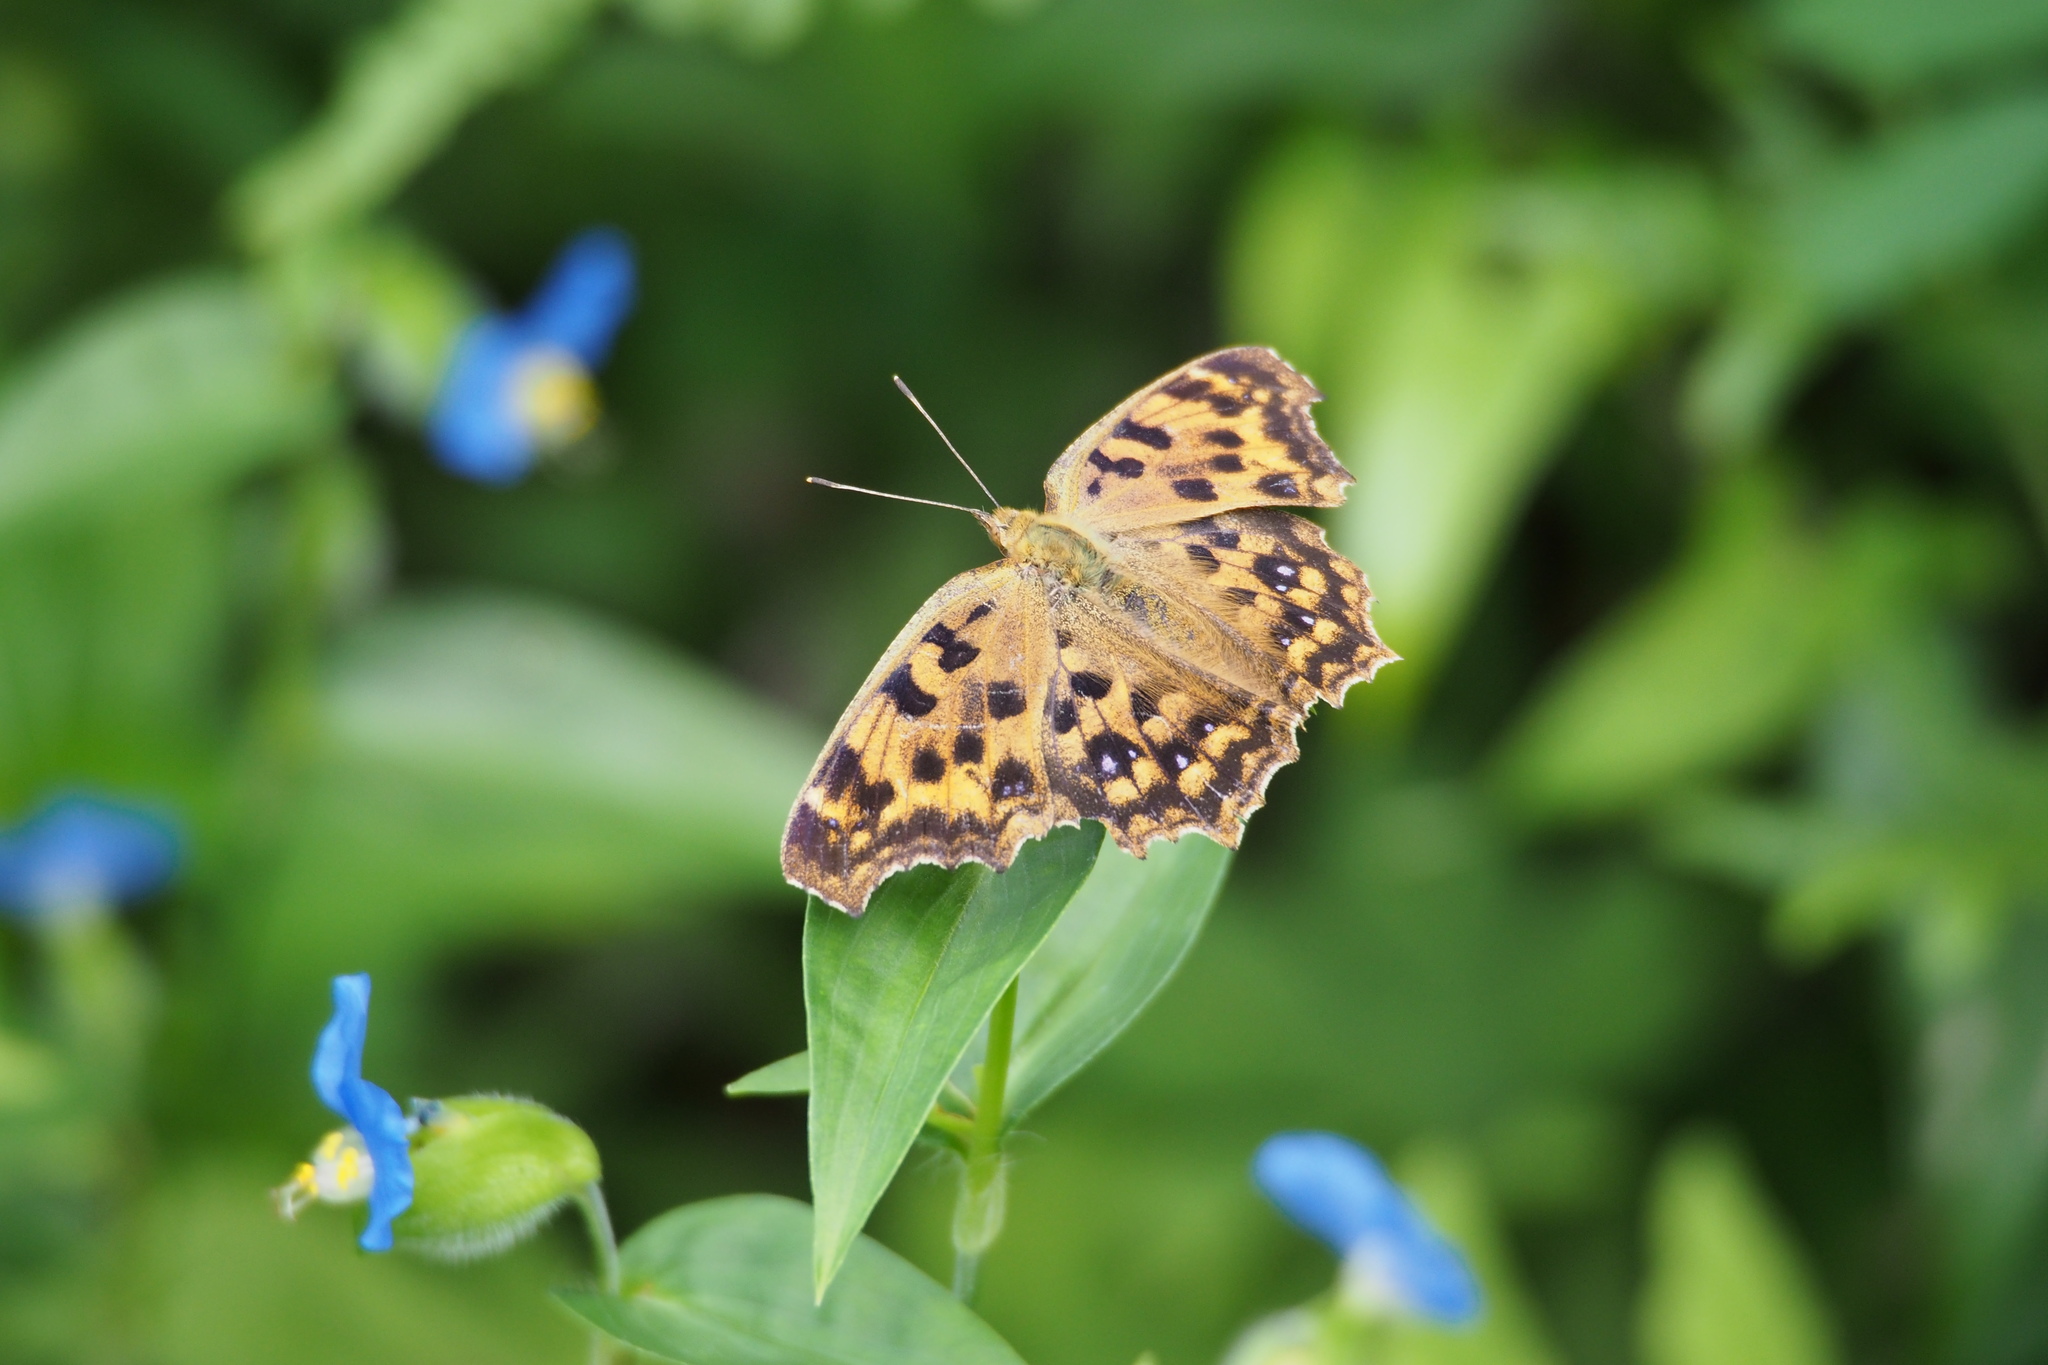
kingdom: Animalia
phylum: Arthropoda
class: Insecta
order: Lepidoptera
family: Nymphalidae
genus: Polygonia
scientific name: Polygonia c-aureum
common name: Asian comma
